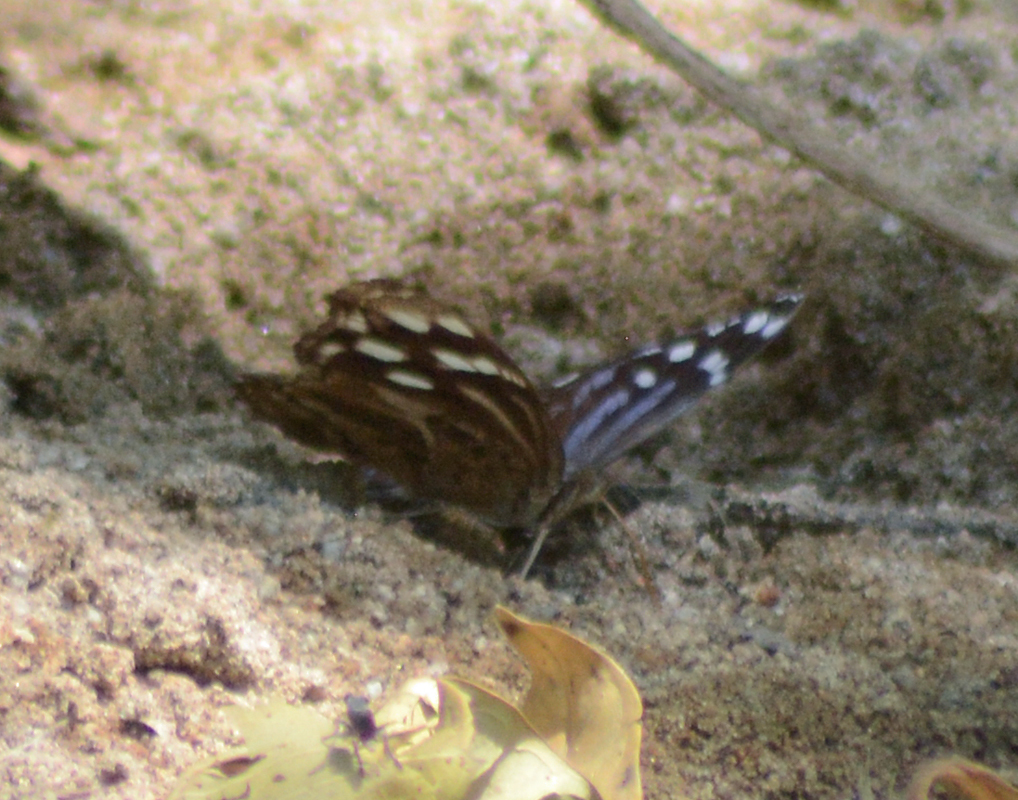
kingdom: Animalia
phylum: Arthropoda
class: Insecta
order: Lepidoptera
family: Nymphalidae
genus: Myscelia
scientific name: Myscelia cyananthe
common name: Blackened bluewing
